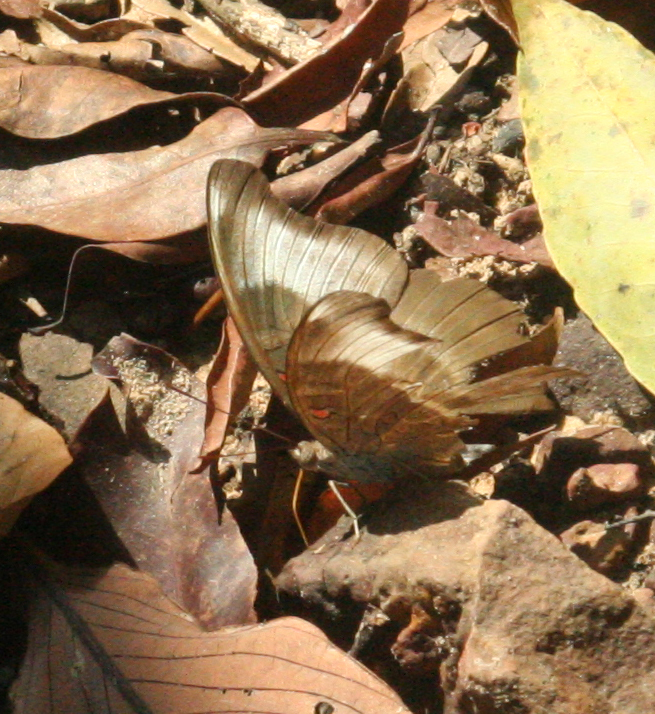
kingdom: Animalia
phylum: Arthropoda
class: Insecta
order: Lepidoptera
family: Nymphalidae
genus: Euthalia
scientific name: Euthalia Dophla evelina
